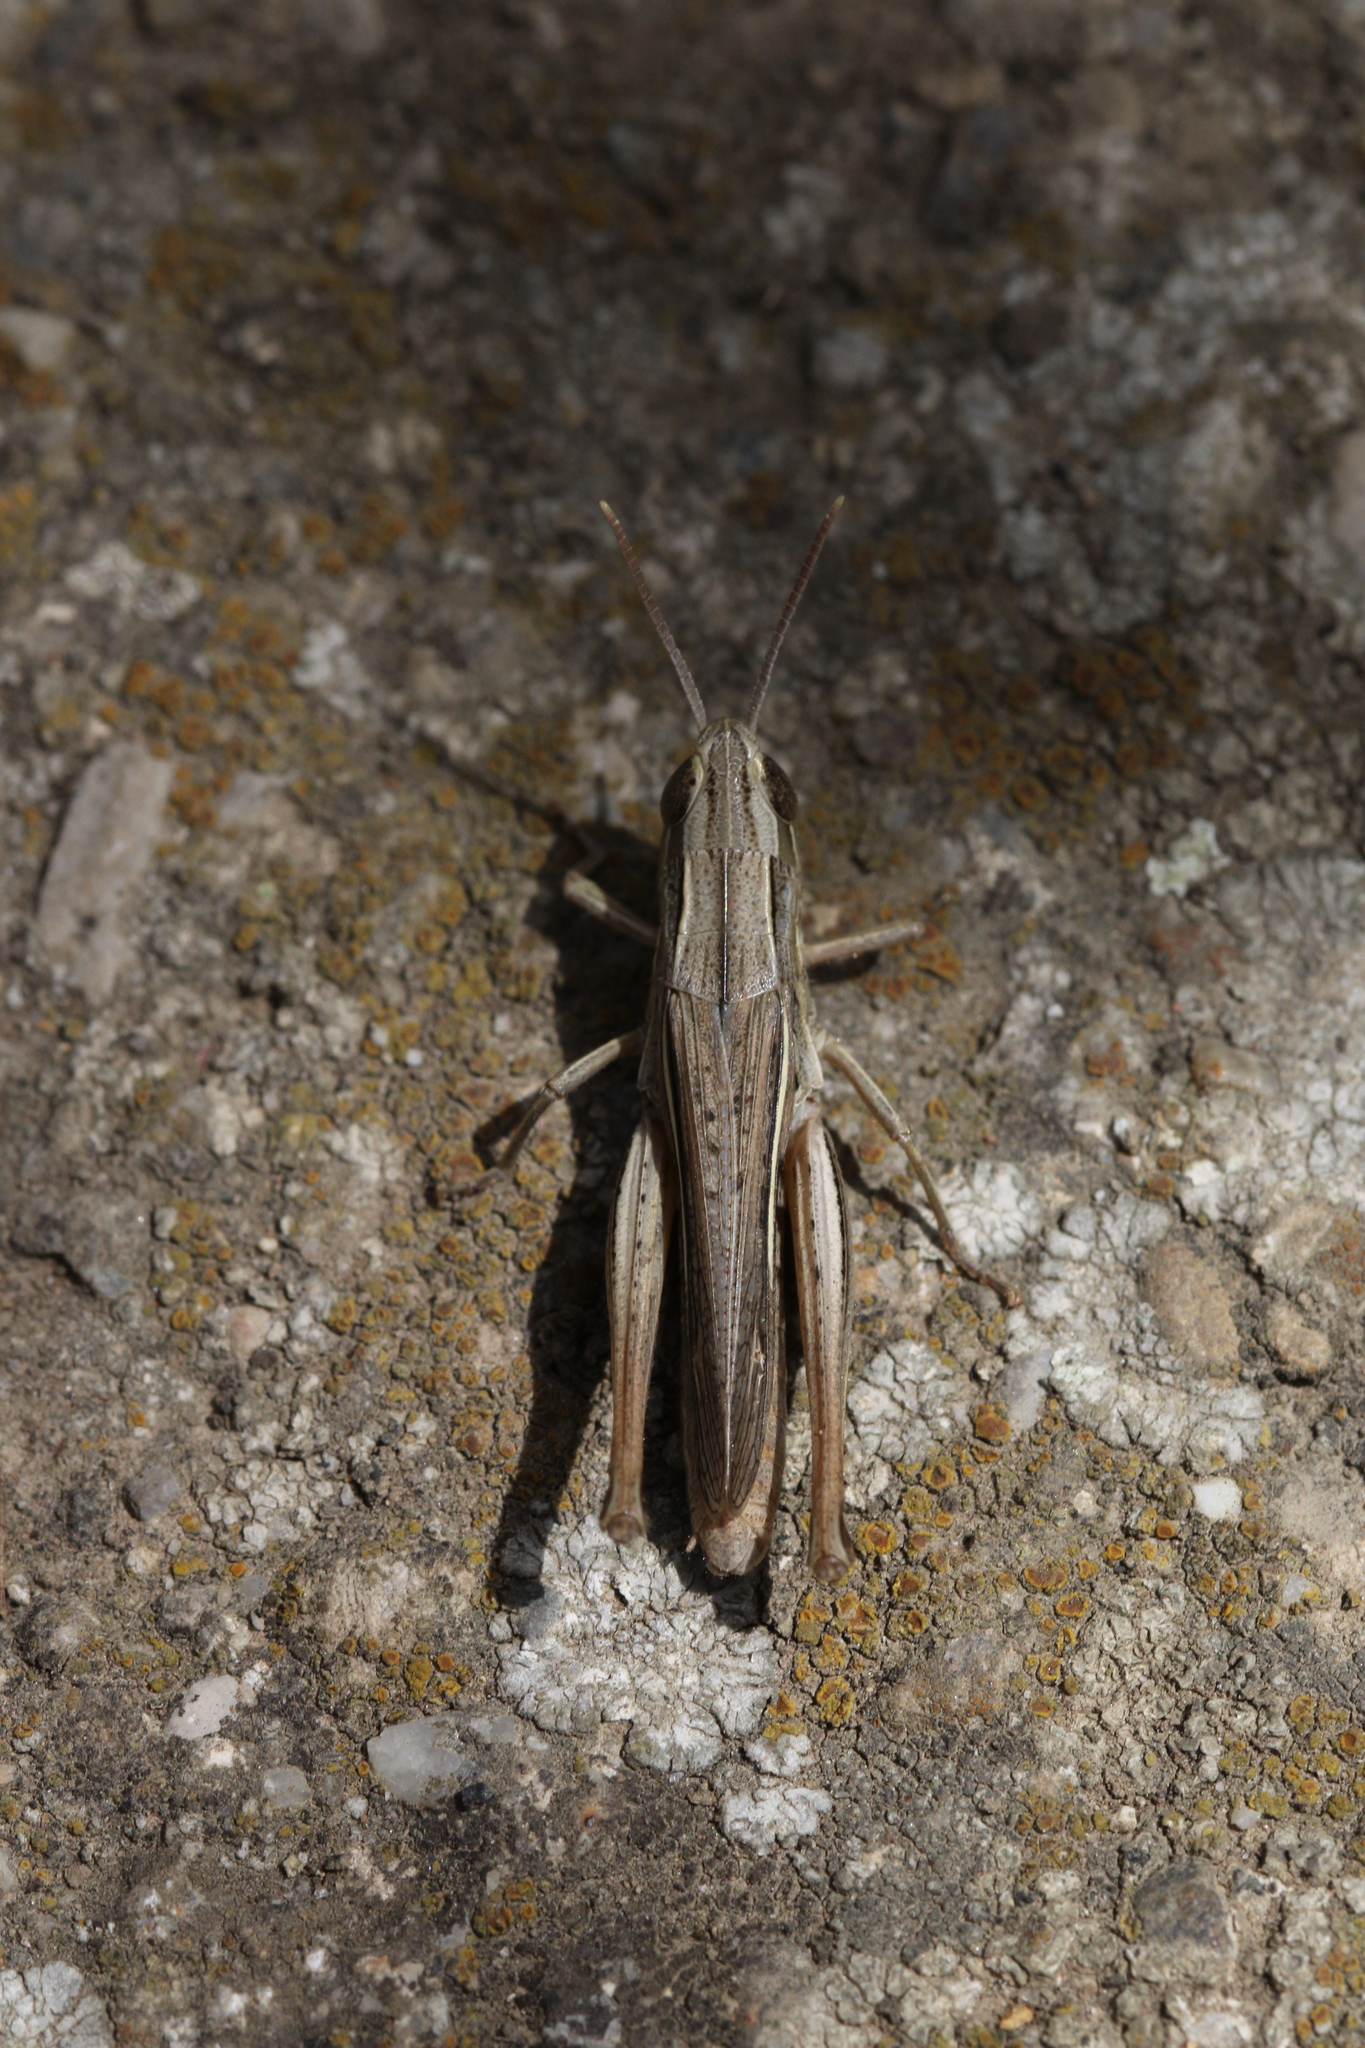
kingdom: Animalia
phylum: Arthropoda
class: Insecta
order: Orthoptera
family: Acrididae
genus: Chorthippus
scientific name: Chorthippus albomarginatus
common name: Lesser marsh grasshopper
